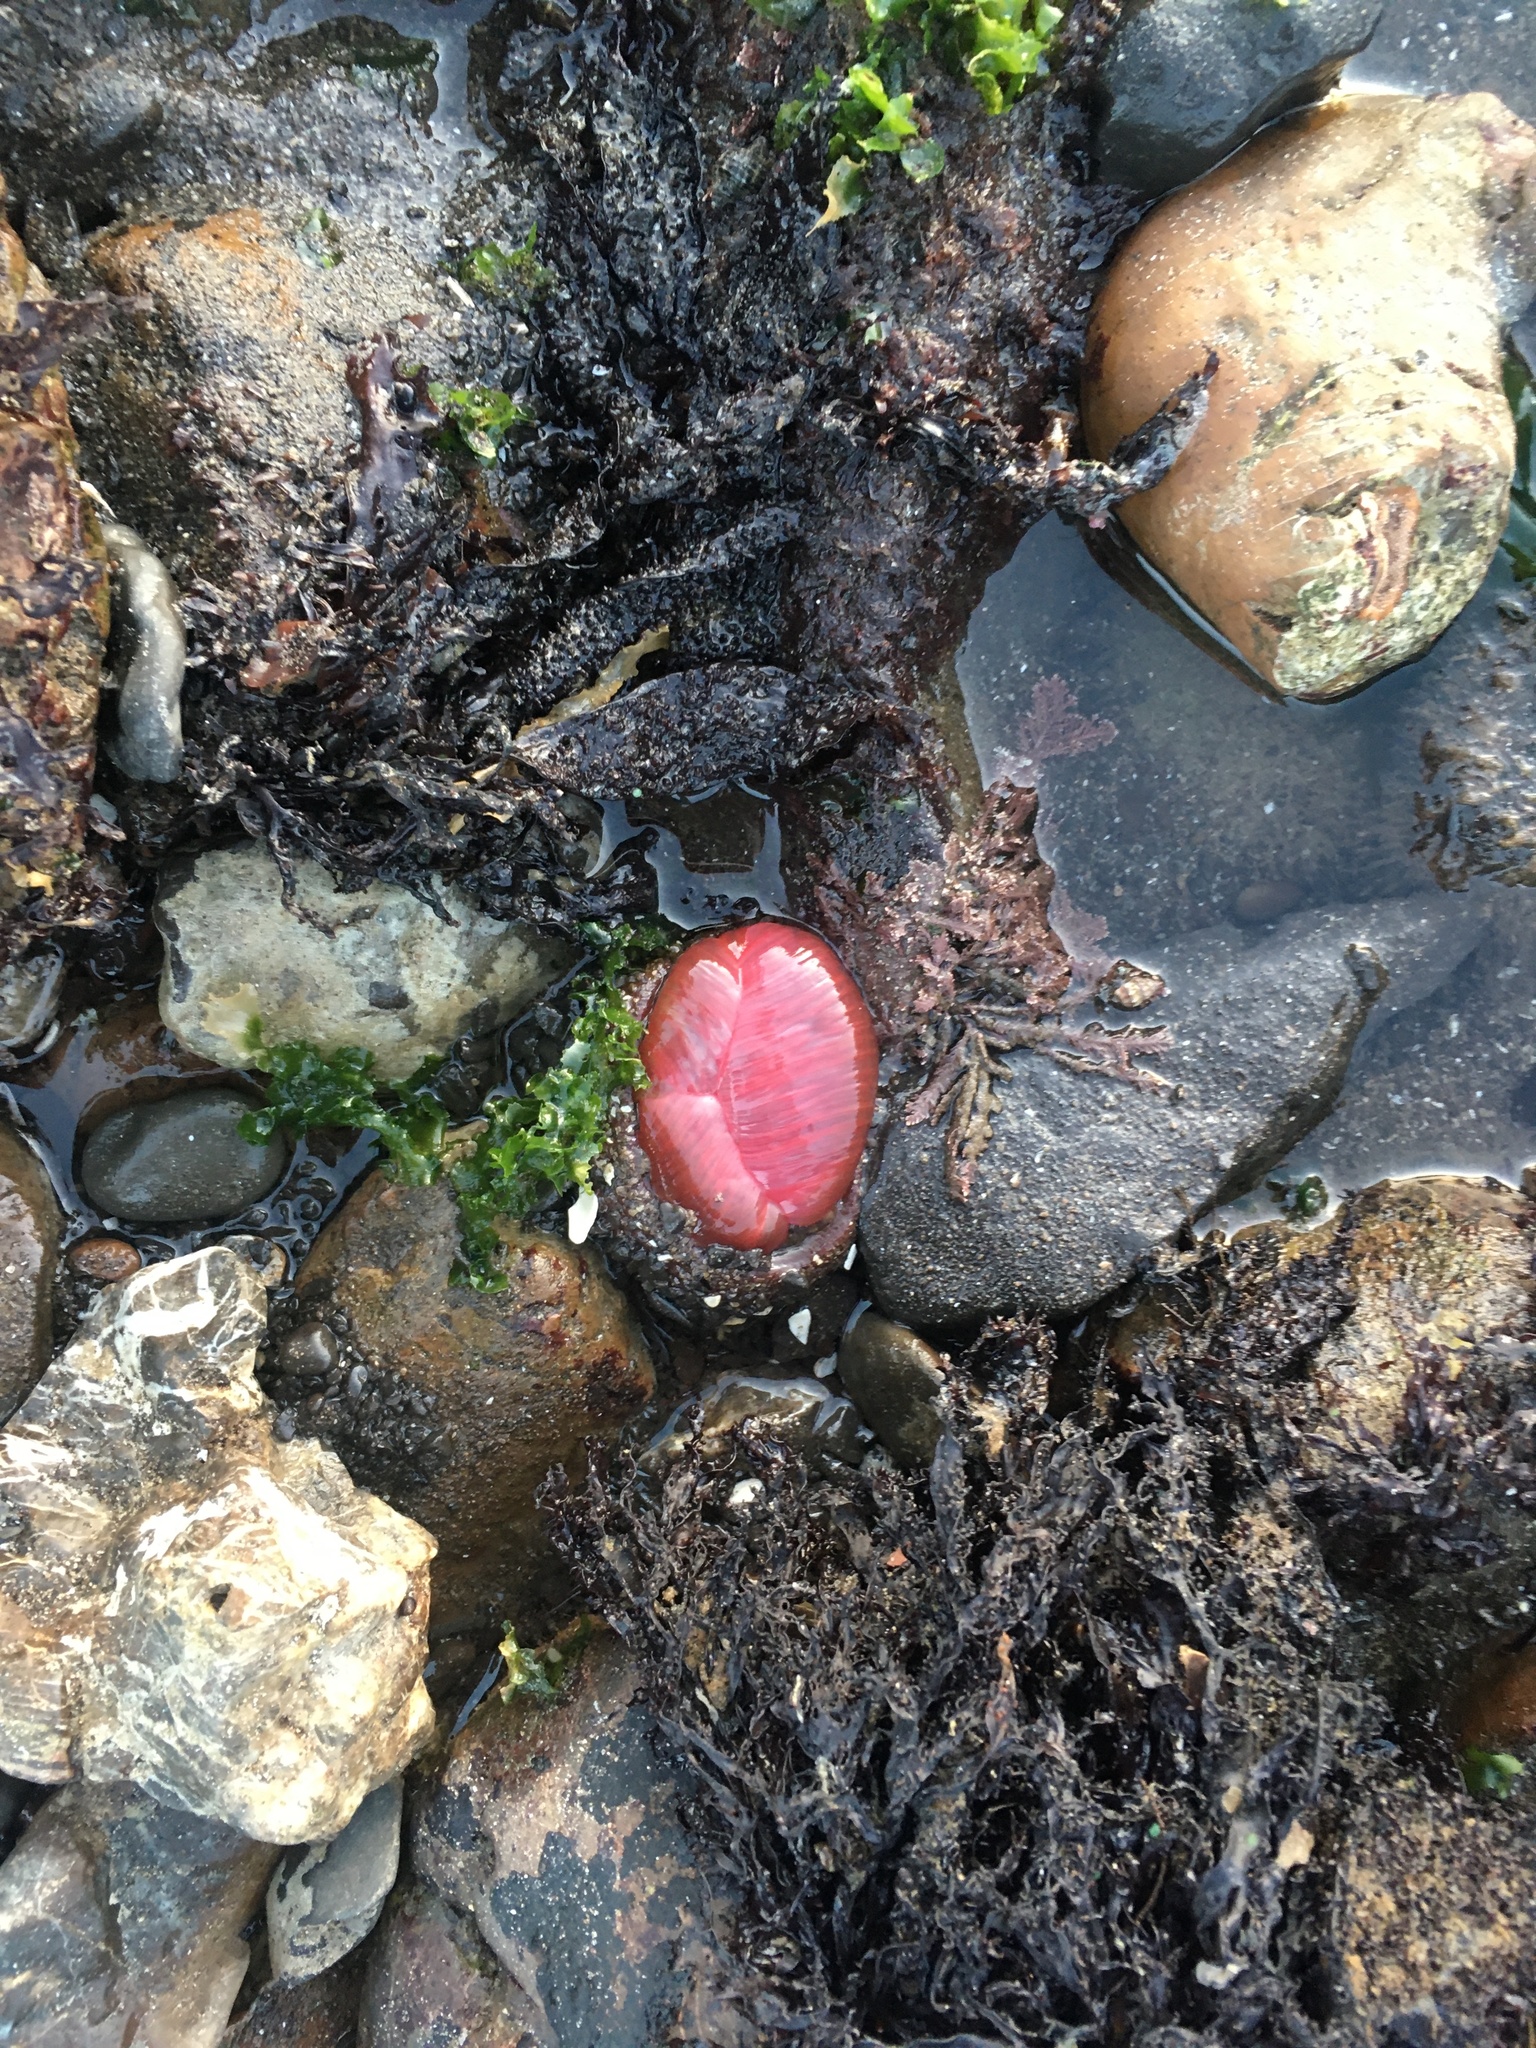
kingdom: Animalia
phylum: Cnidaria
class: Anthozoa
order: Actiniaria
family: Actiniidae
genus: Urticina
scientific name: Urticina clandestina
